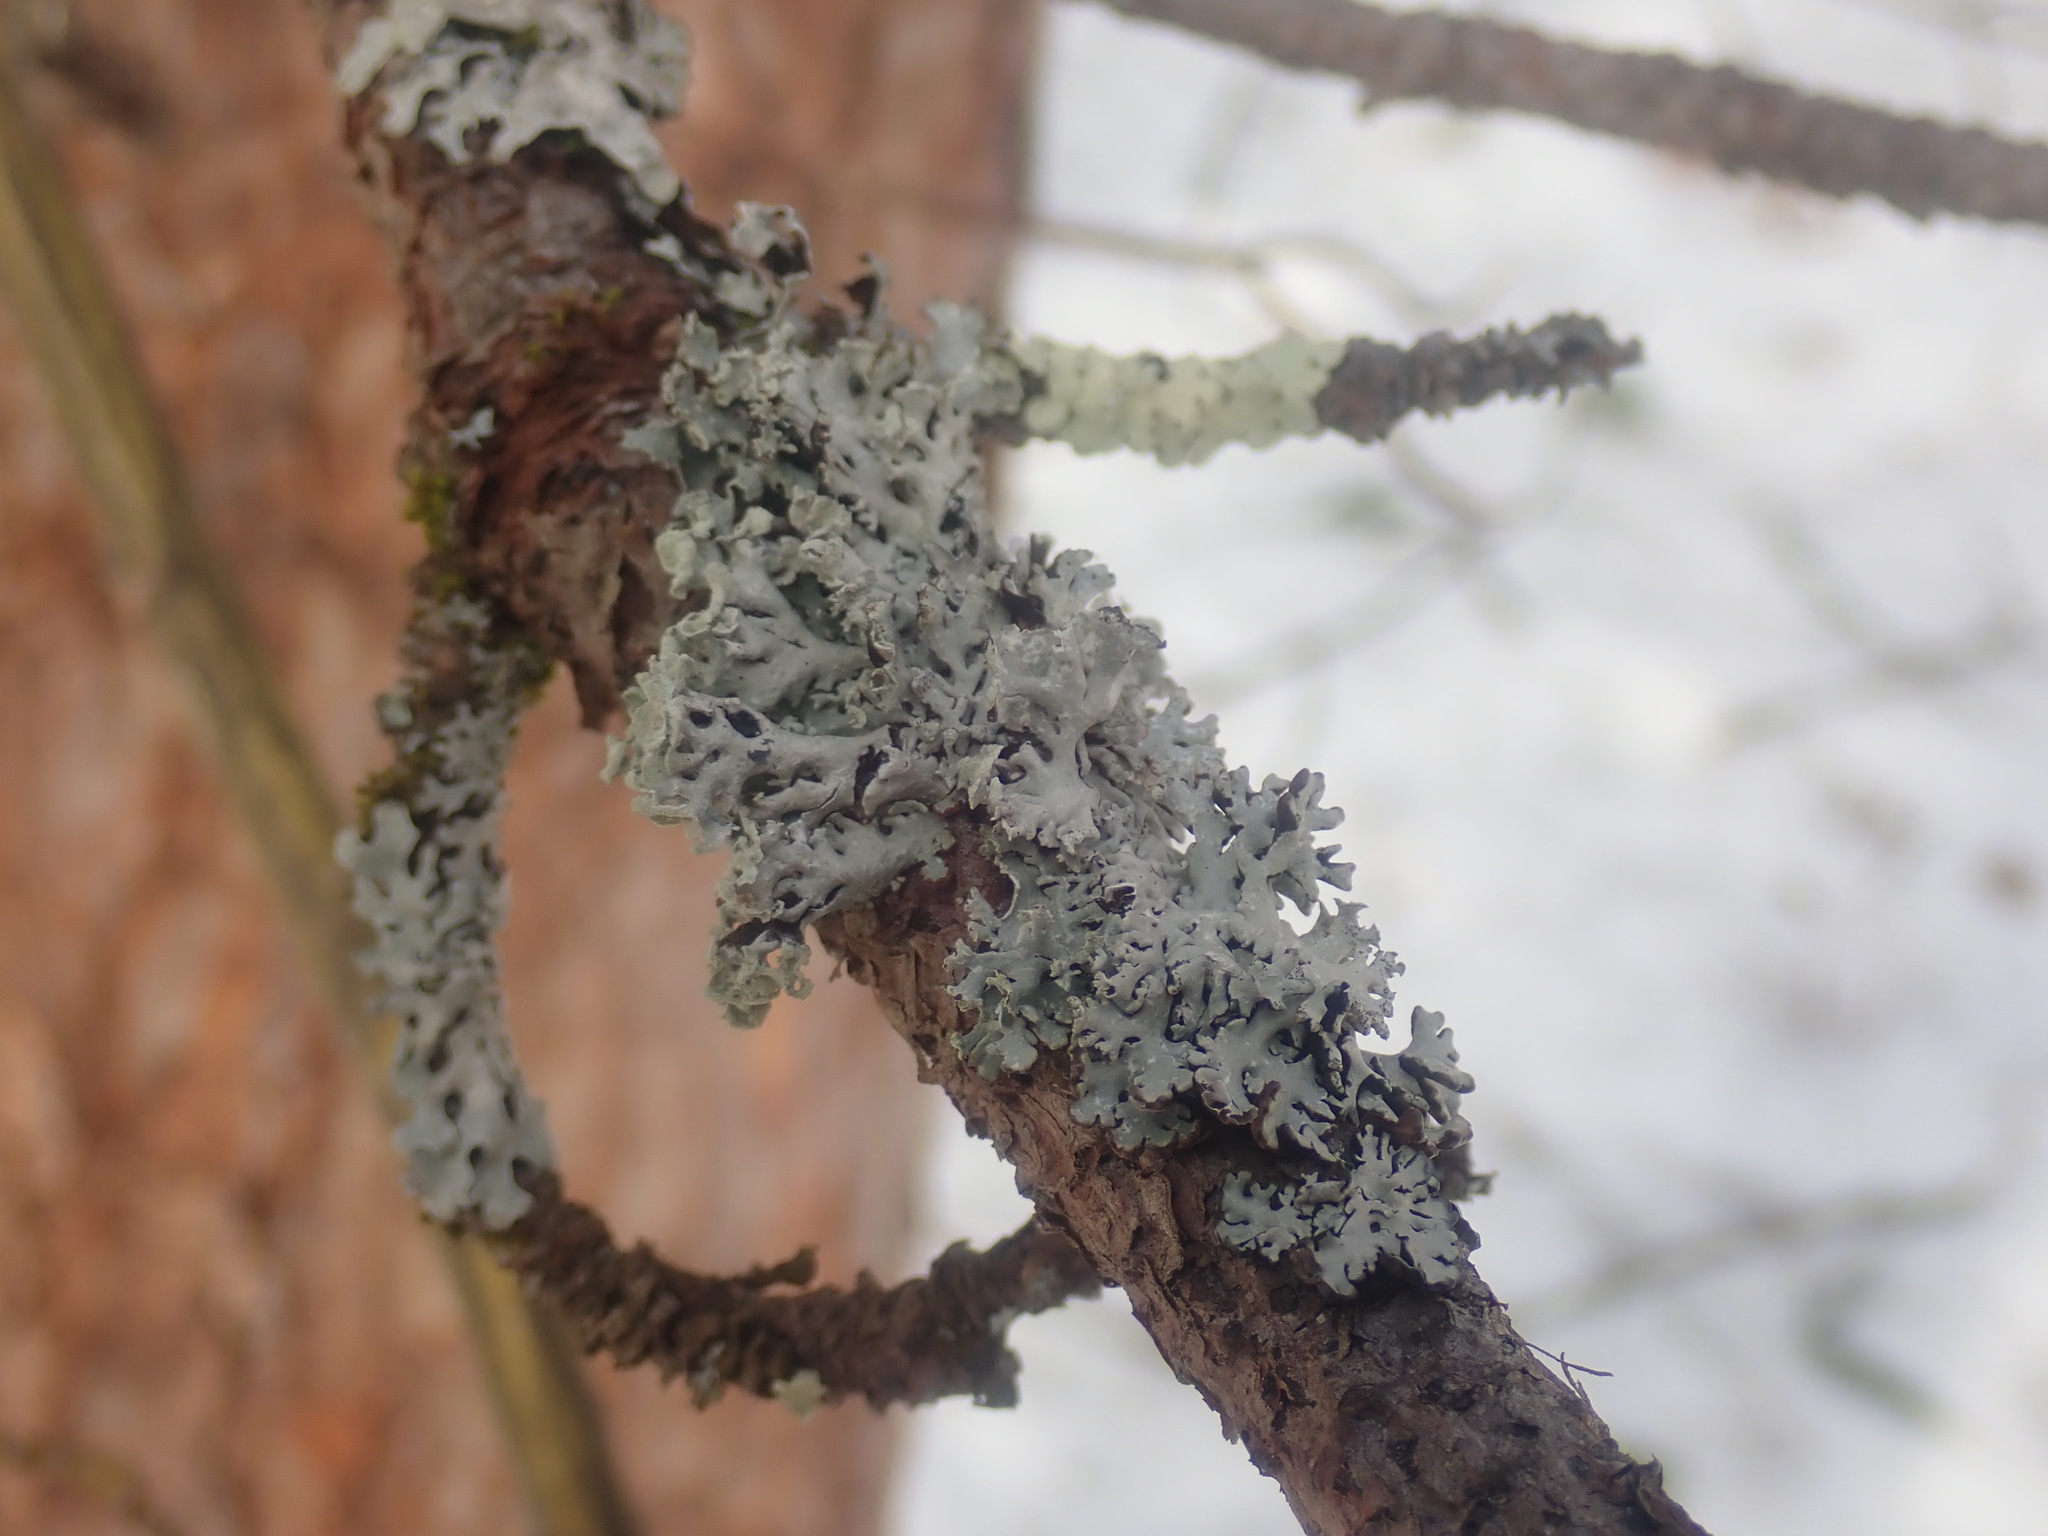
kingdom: Fungi
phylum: Ascomycota
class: Lecanoromycetes
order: Lecanorales
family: Parmeliaceae
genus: Hypogymnia
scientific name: Hypogymnia physodes
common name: Dark crottle
